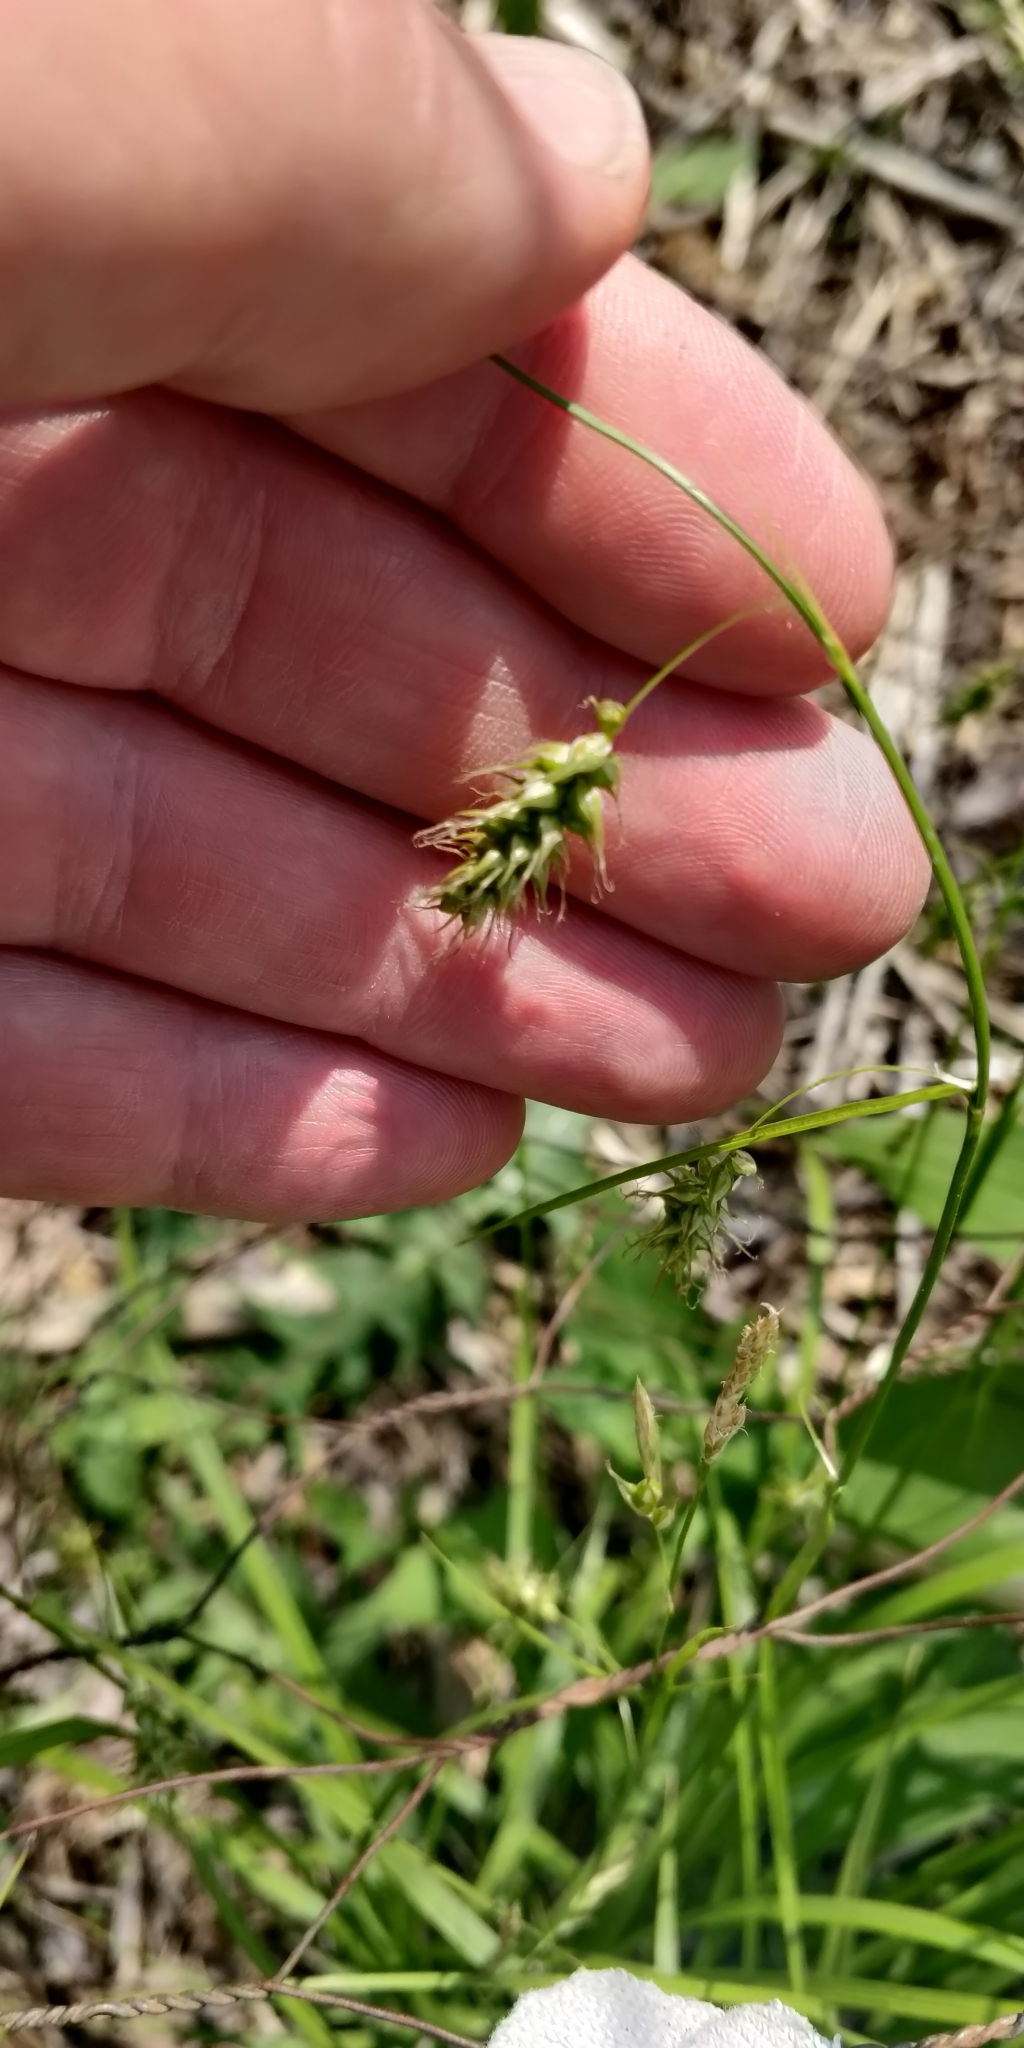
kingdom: Plantae
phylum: Tracheophyta
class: Liliopsida
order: Poales
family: Cyperaceae
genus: Carex
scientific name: Carex sprengelii
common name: Long-beaked sedge
